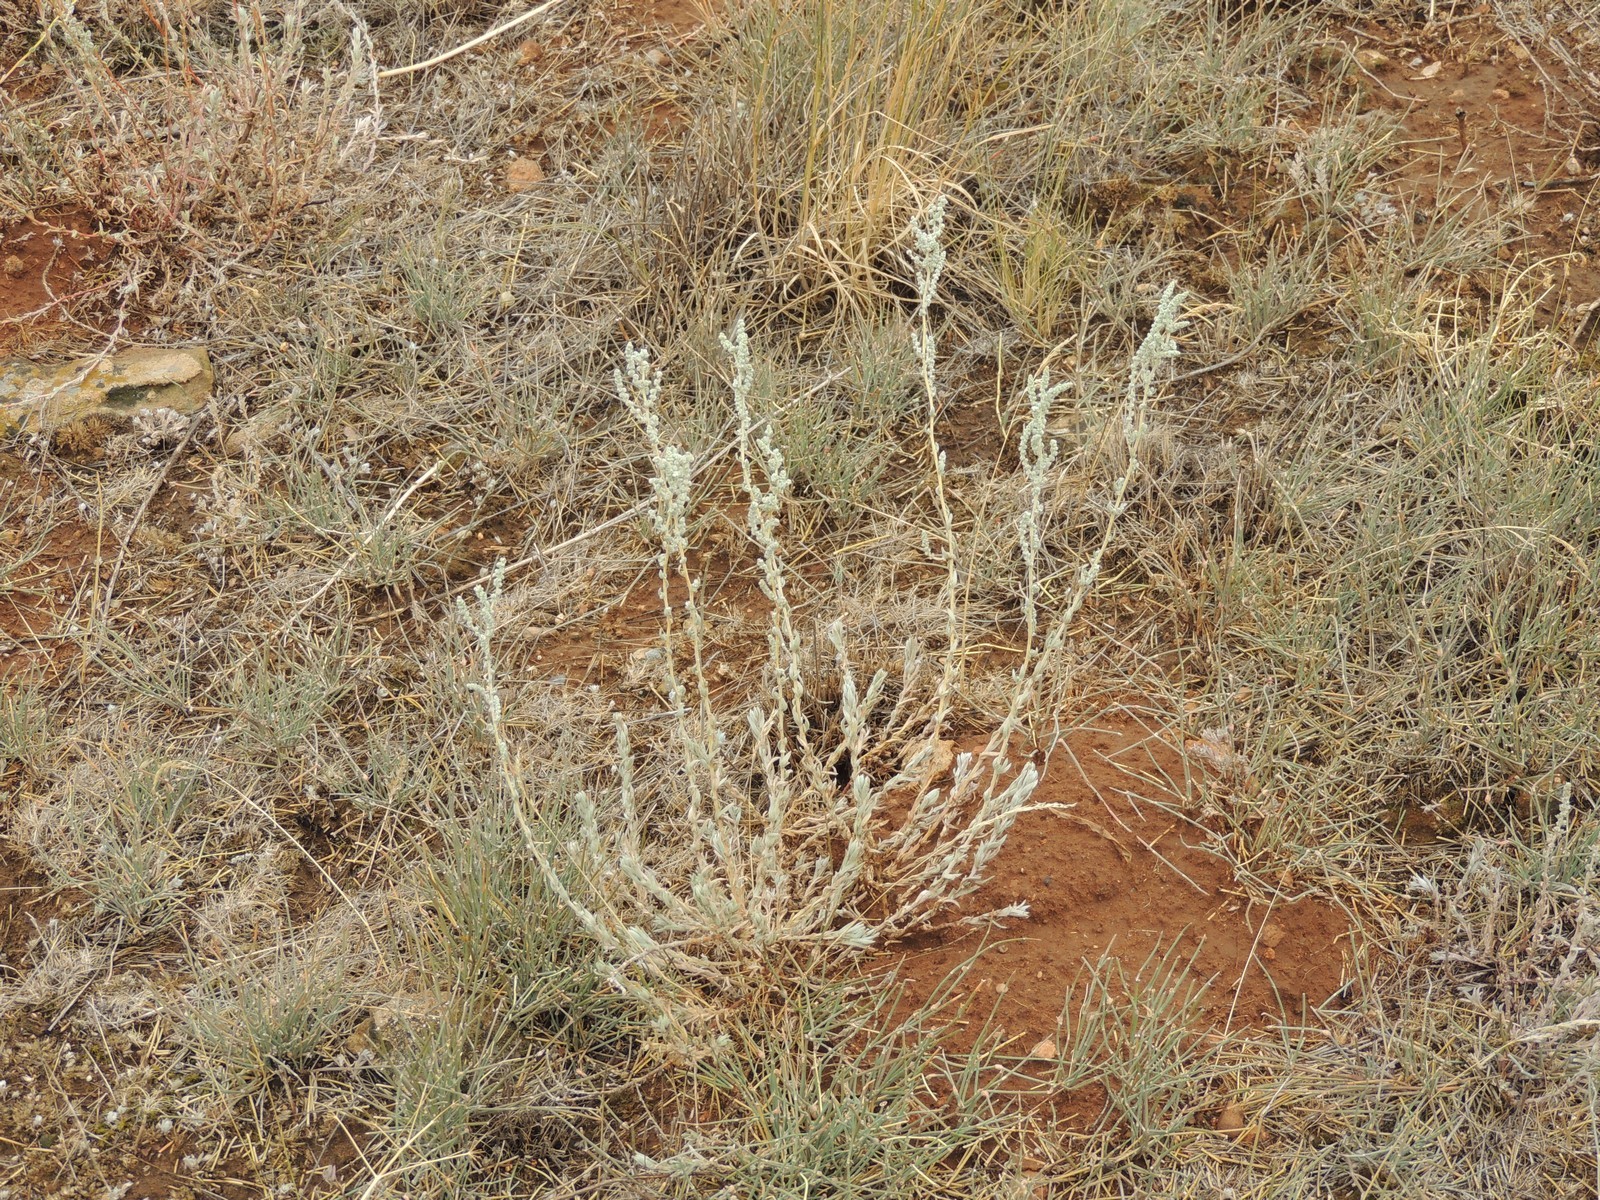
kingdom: Plantae
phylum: Tracheophyta
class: Magnoliopsida
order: Caryophyllales
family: Amaranthaceae
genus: Bassia
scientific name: Bassia prostrata
